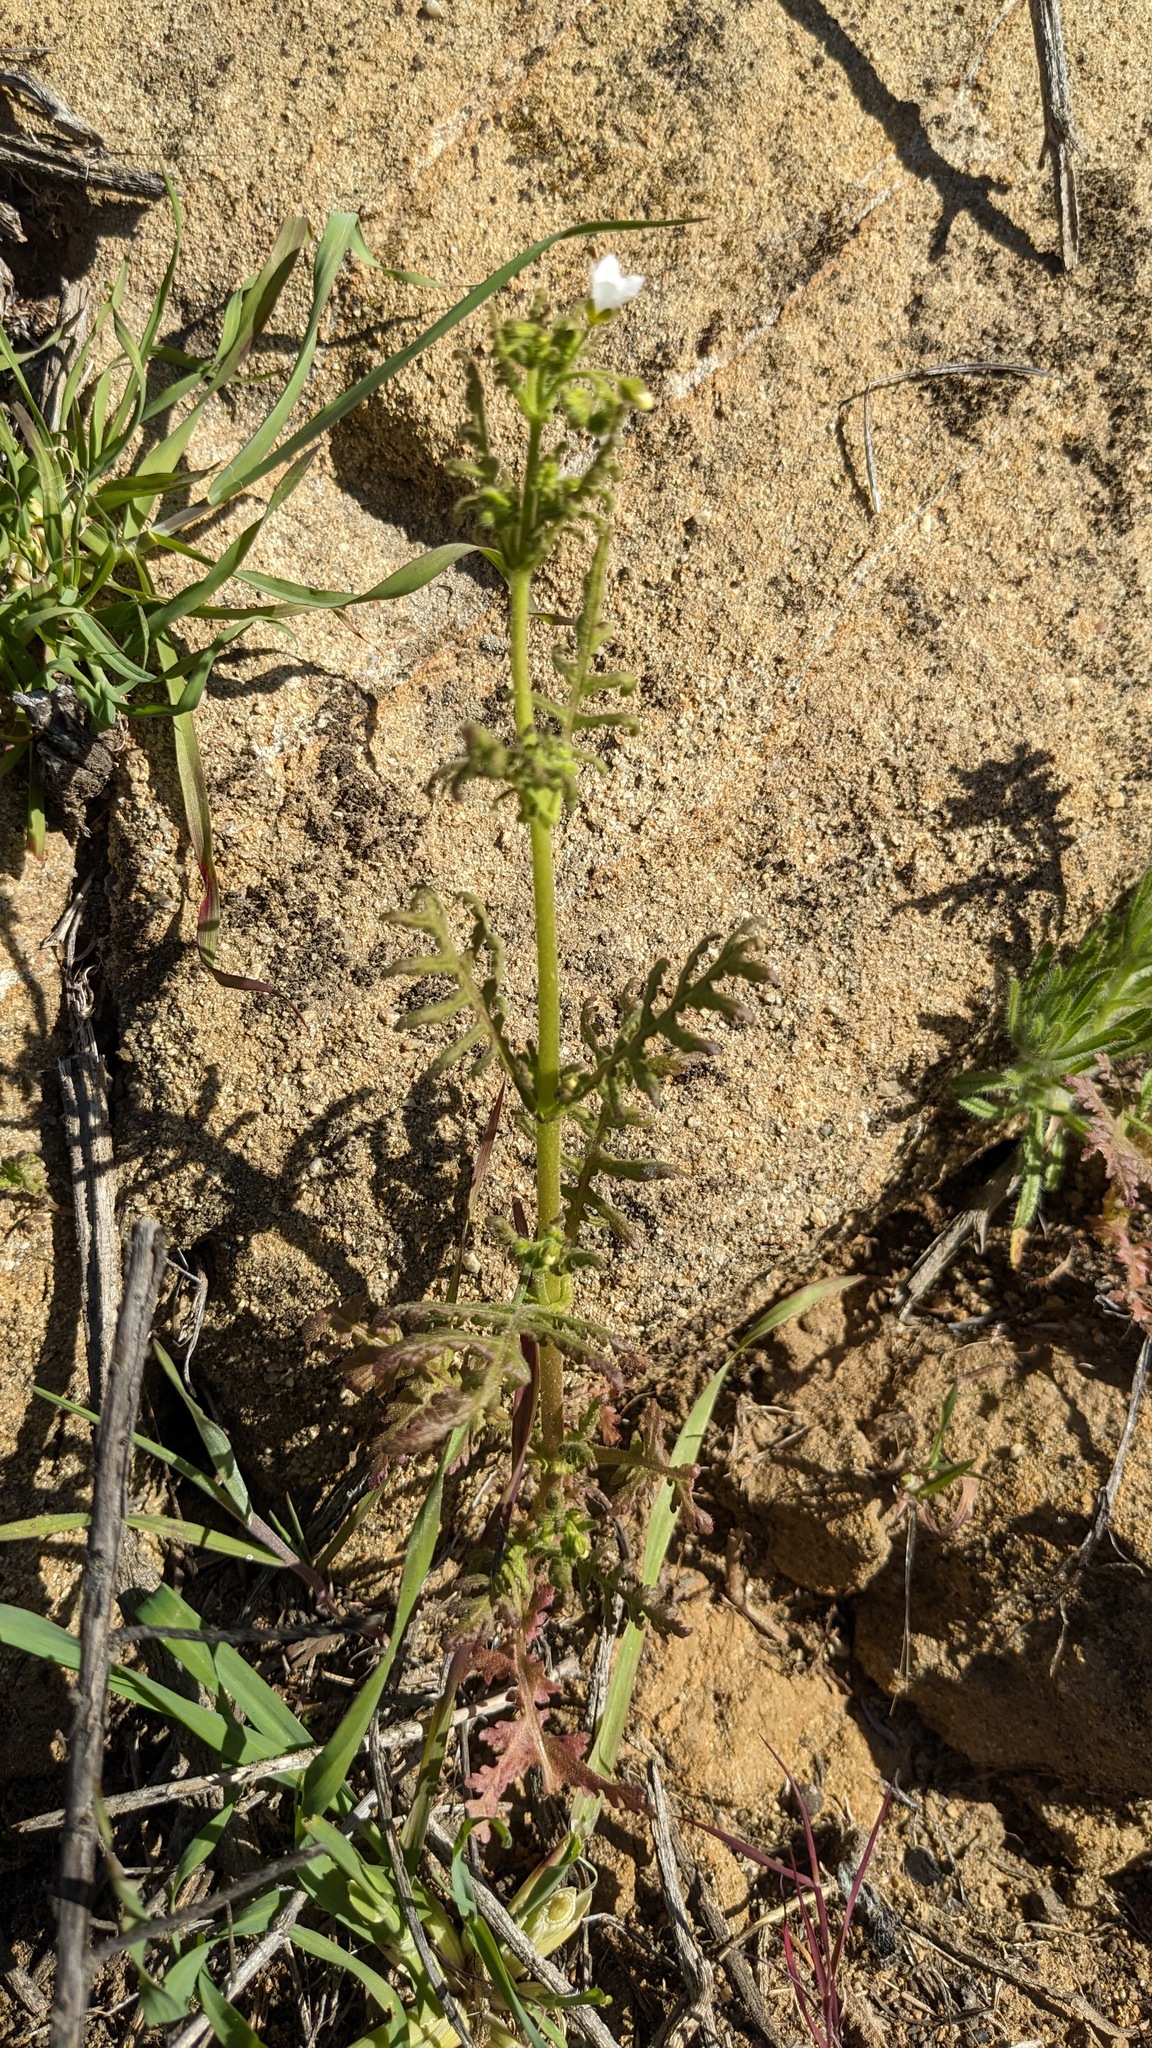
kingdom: Plantae
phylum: Tracheophyta
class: Magnoliopsida
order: Boraginales
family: Hydrophyllaceae
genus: Eucrypta
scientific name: Eucrypta chrysanthemifolia
